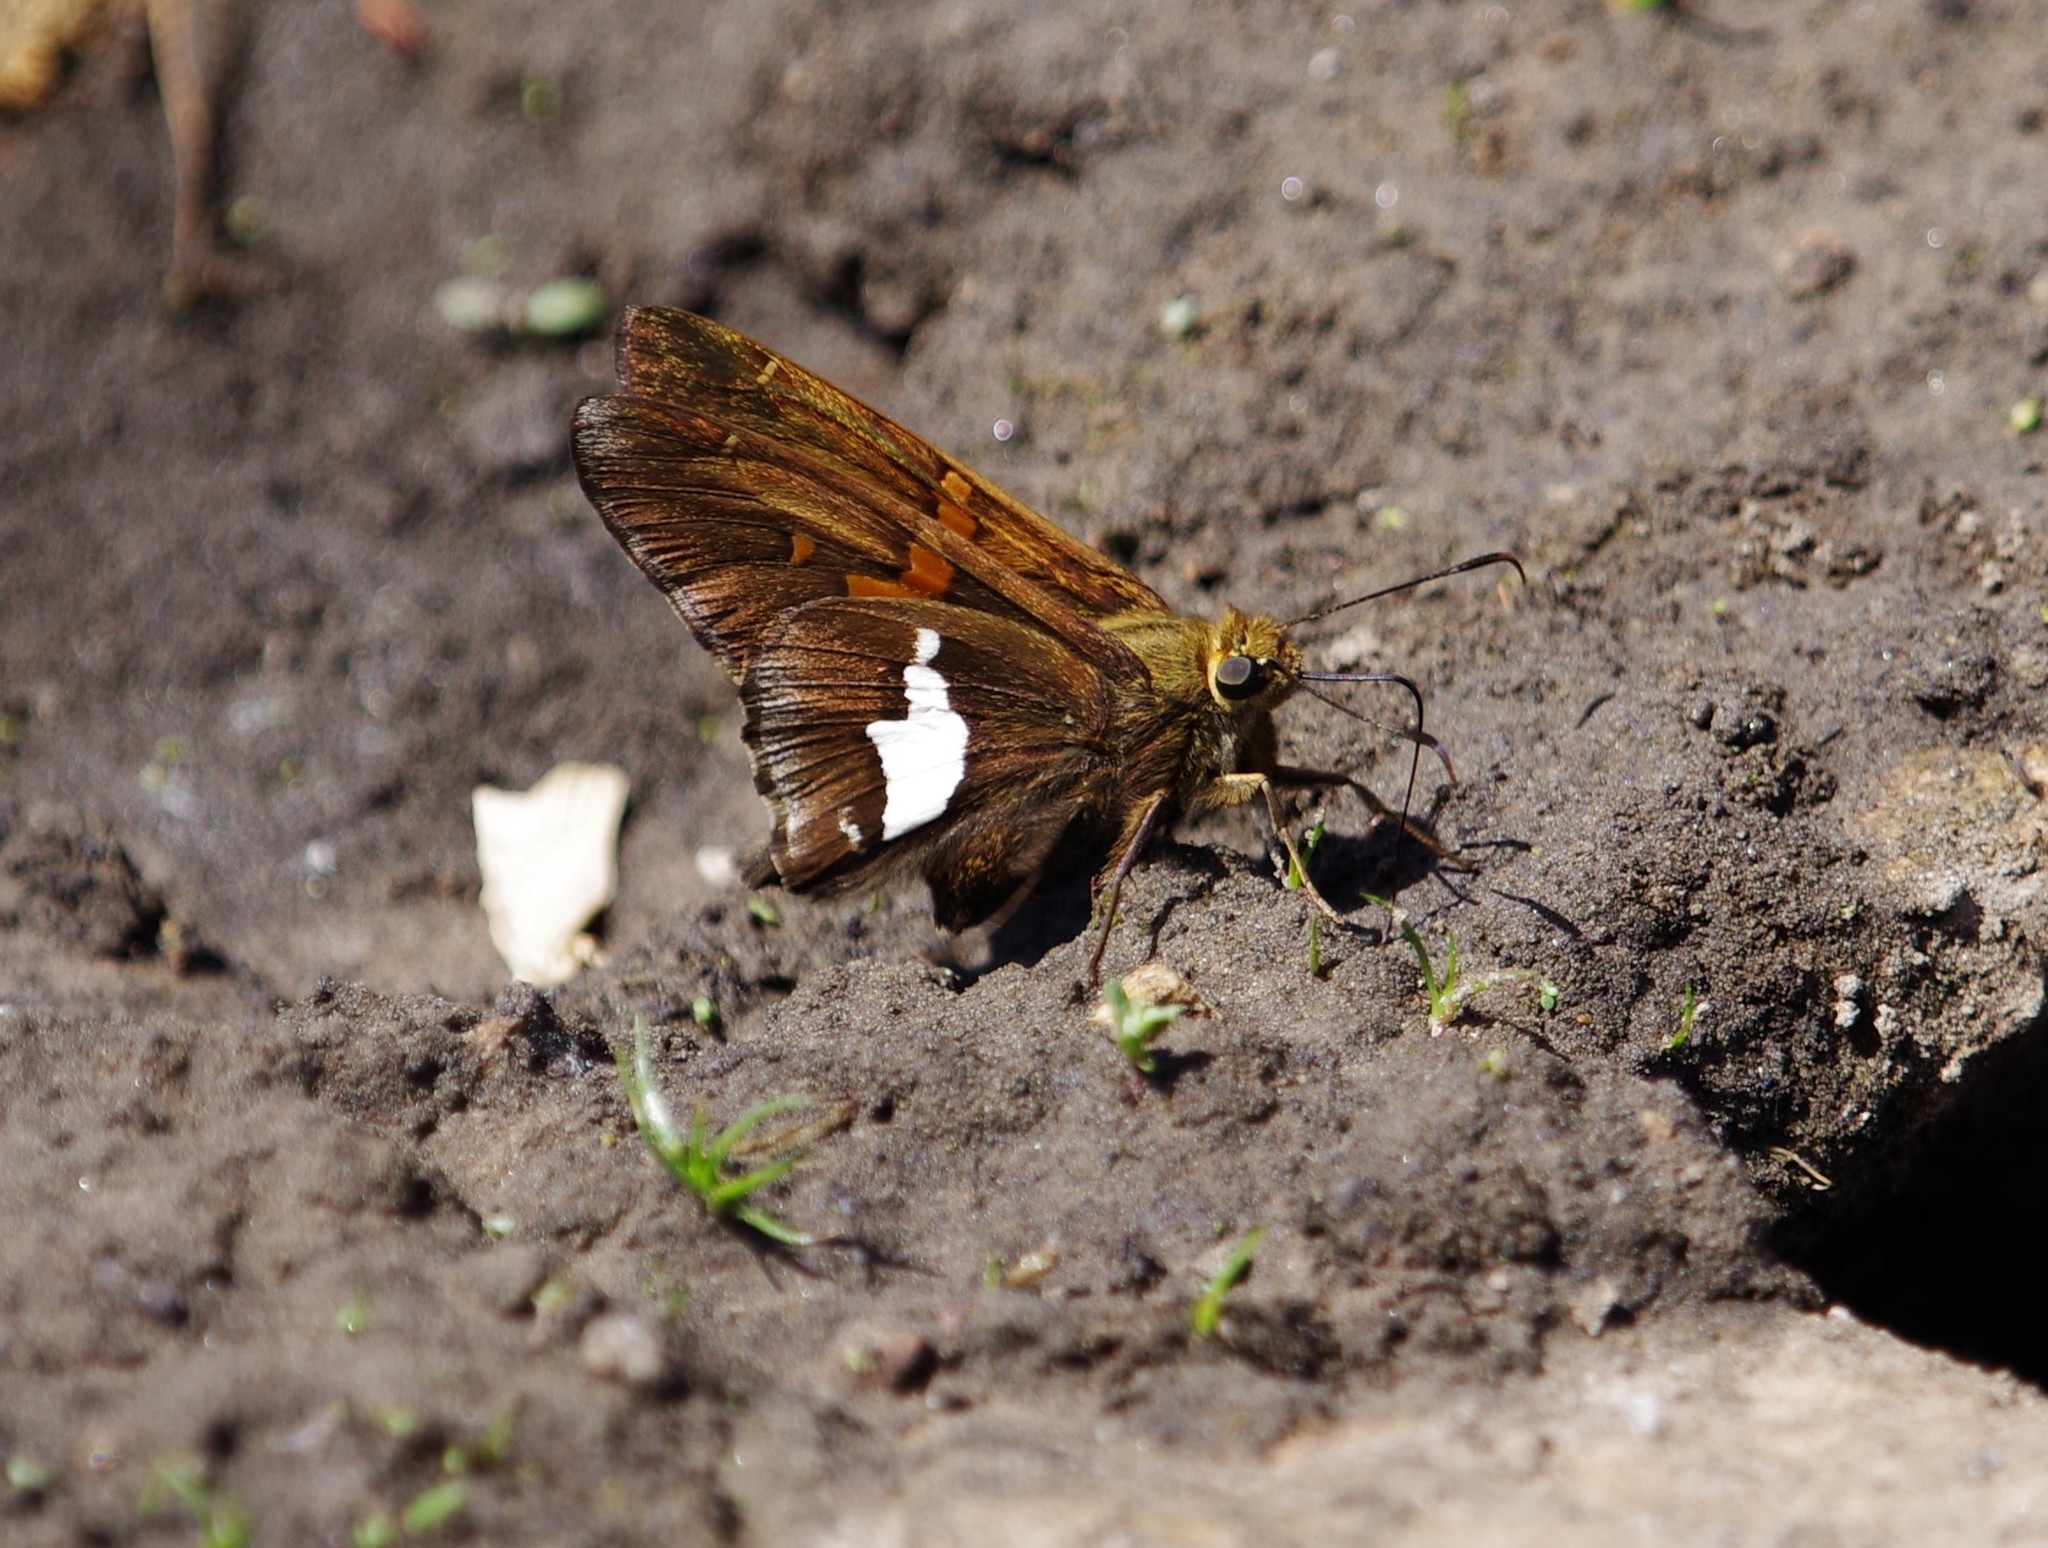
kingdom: Animalia
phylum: Arthropoda
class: Insecta
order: Lepidoptera
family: Hesperiidae
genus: Epargyreus
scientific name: Epargyreus clarus
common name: Silver-spotted skipper
